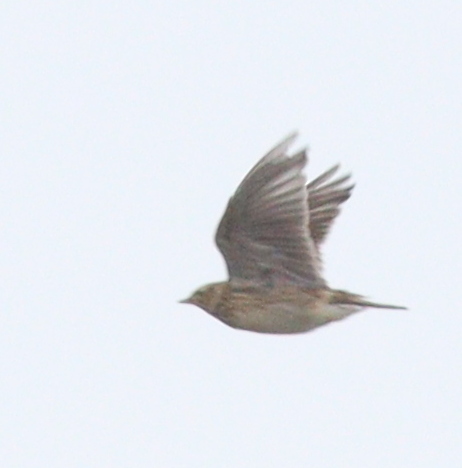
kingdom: Animalia
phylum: Chordata
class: Aves
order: Passeriformes
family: Alaudidae
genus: Alauda
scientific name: Alauda arvensis
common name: Eurasian skylark
